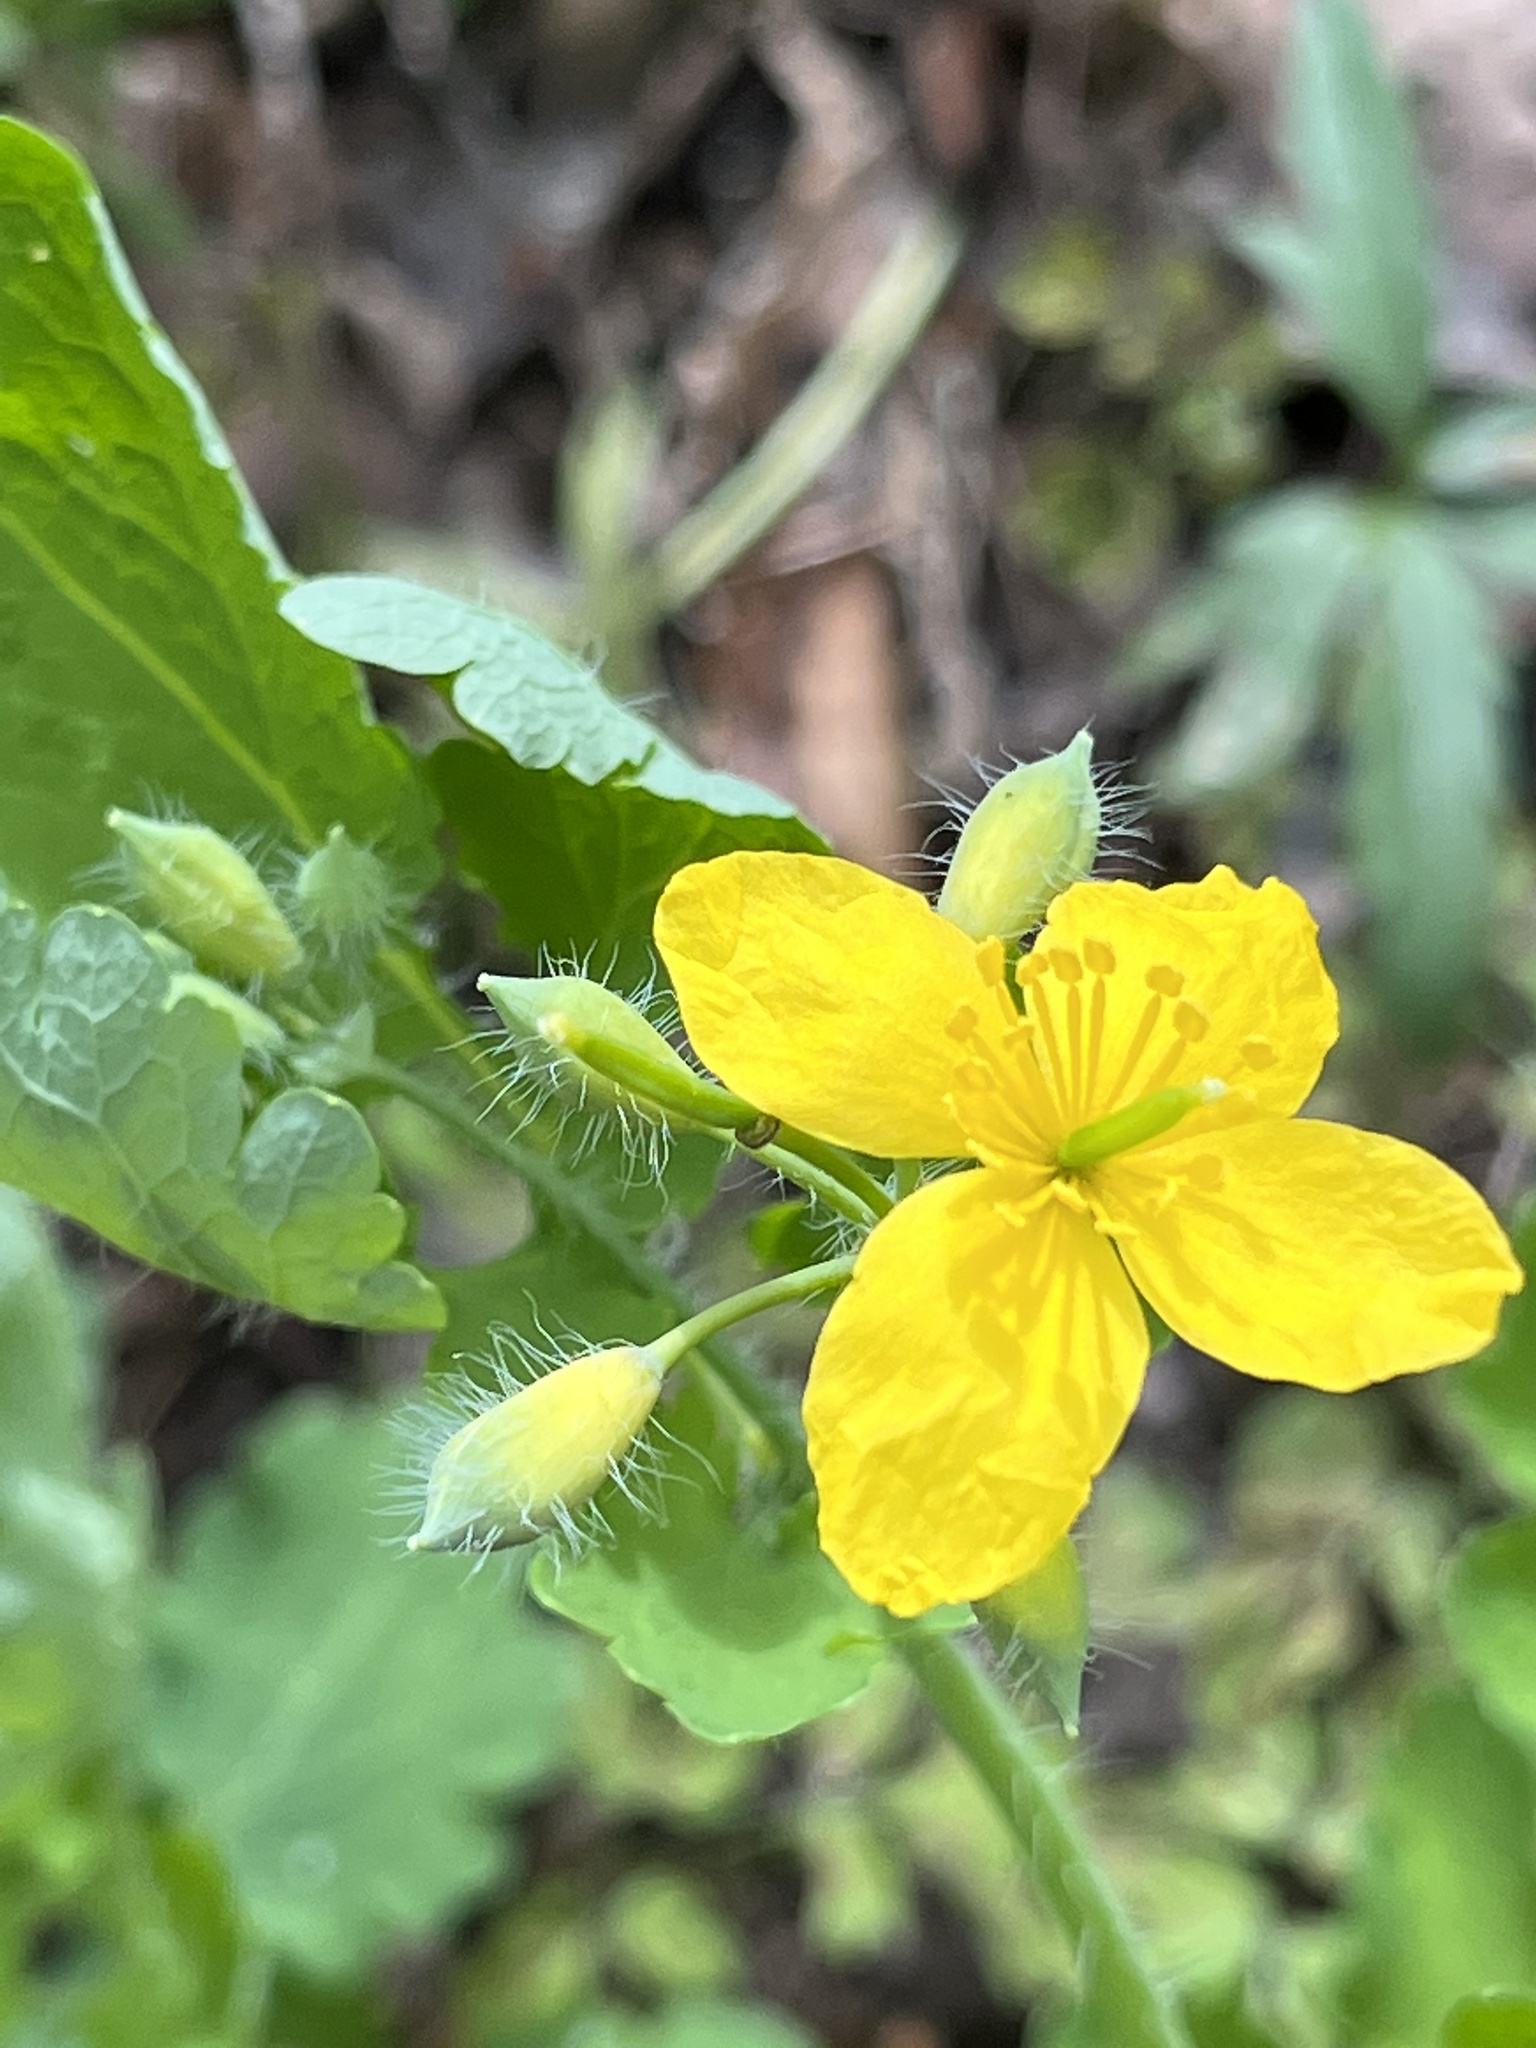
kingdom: Plantae
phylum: Tracheophyta
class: Magnoliopsida
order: Ranunculales
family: Papaveraceae
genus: Chelidonium
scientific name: Chelidonium majus
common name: Greater celandine
